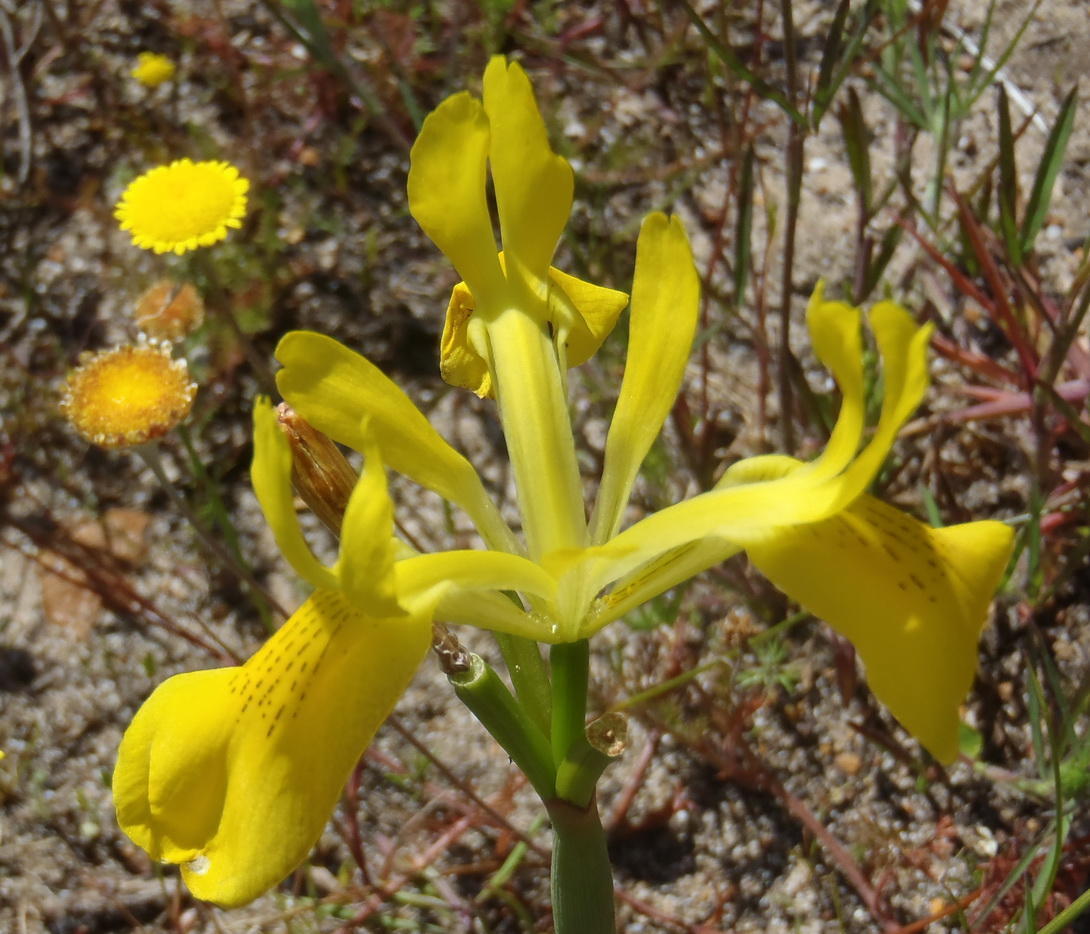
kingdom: Plantae
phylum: Tracheophyta
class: Liliopsida
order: Asparagales
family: Iridaceae
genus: Moraea
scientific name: Moraea neglecta
